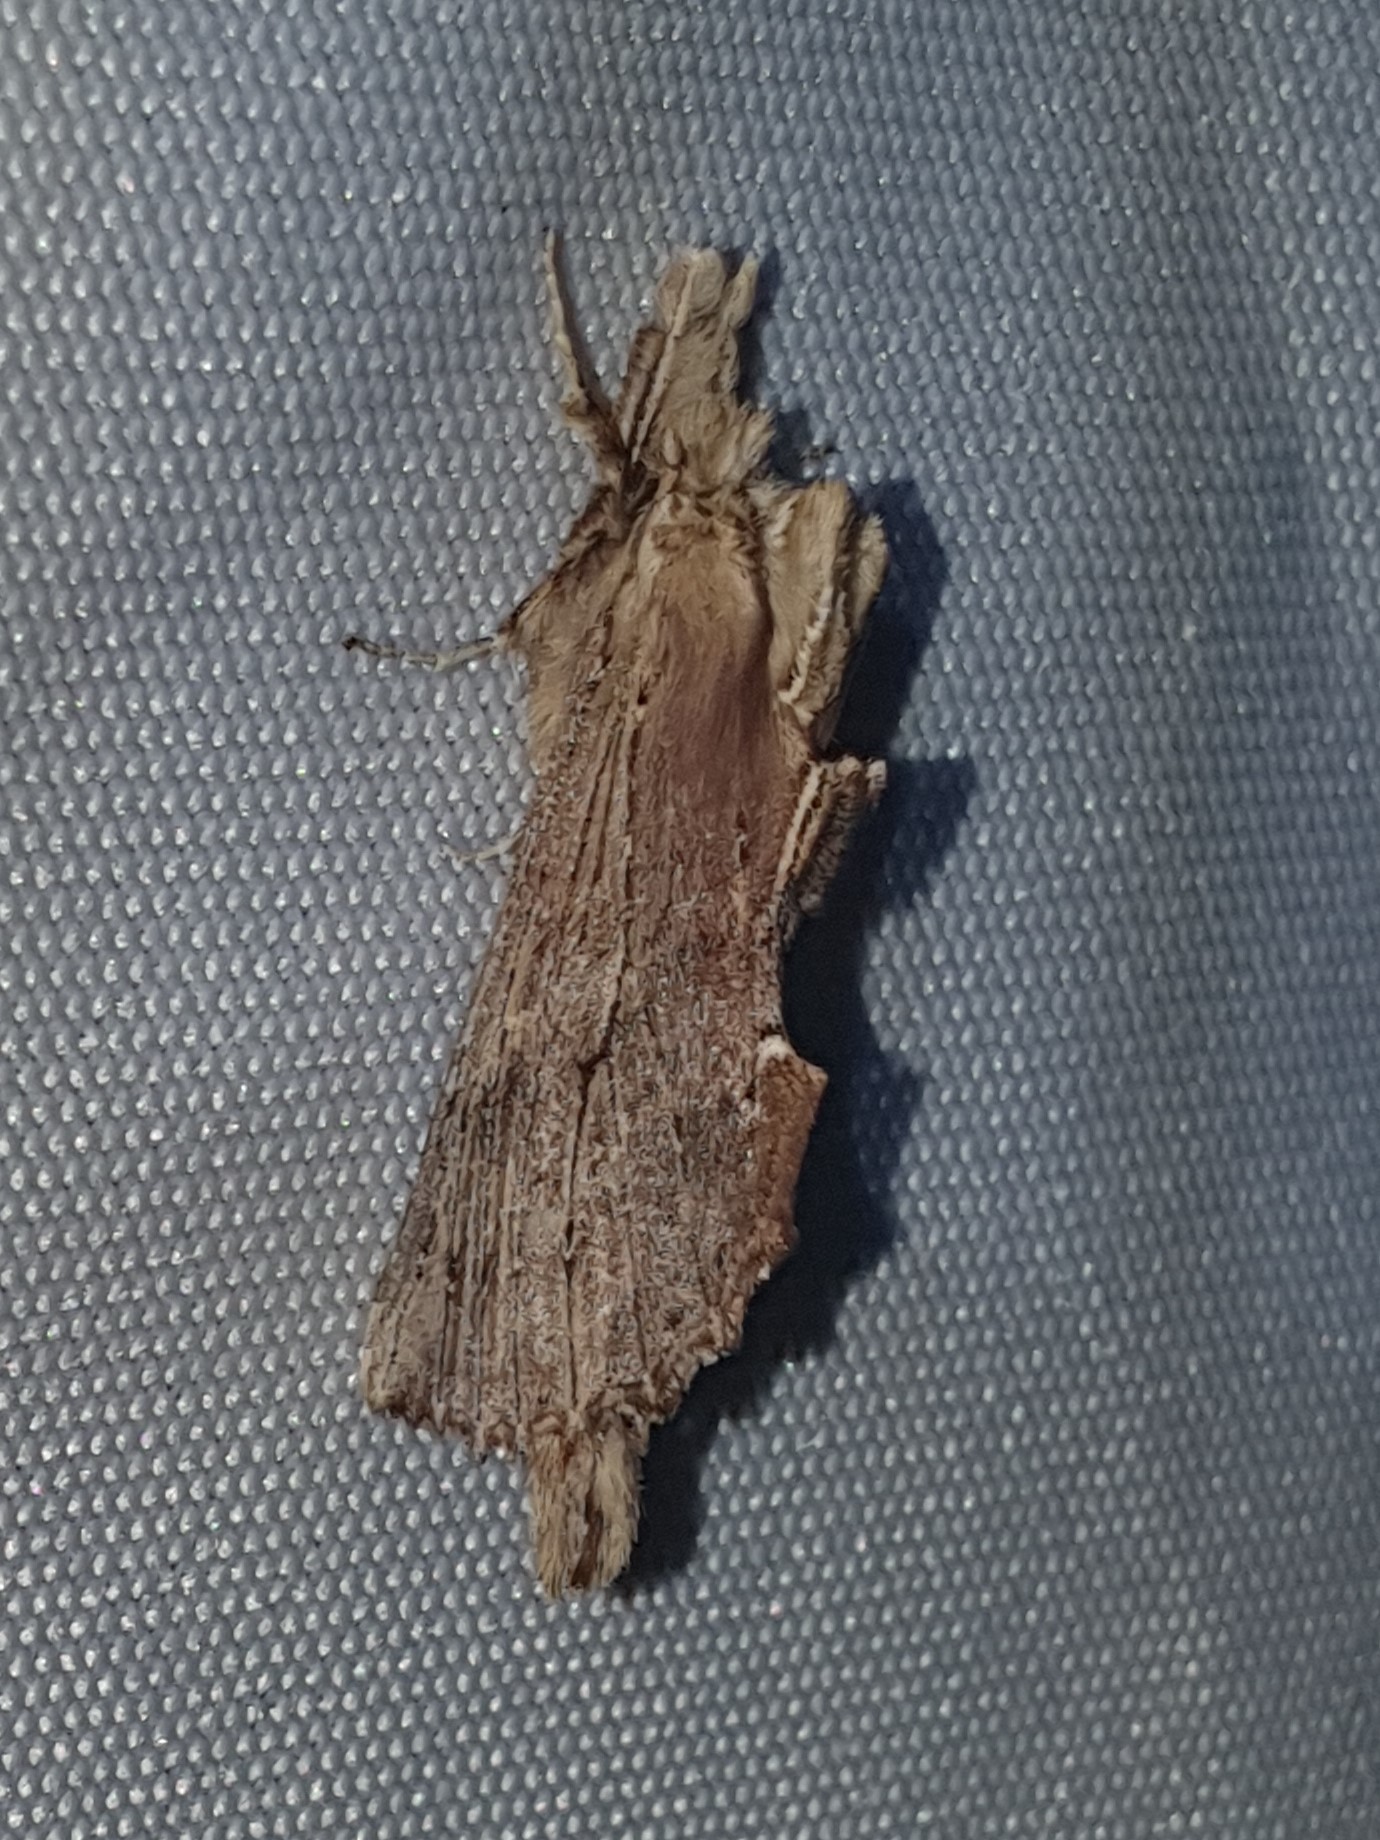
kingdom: Animalia
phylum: Arthropoda
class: Insecta
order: Lepidoptera
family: Notodontidae
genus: Pterostoma
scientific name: Pterostoma palpina
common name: Pale prominent
